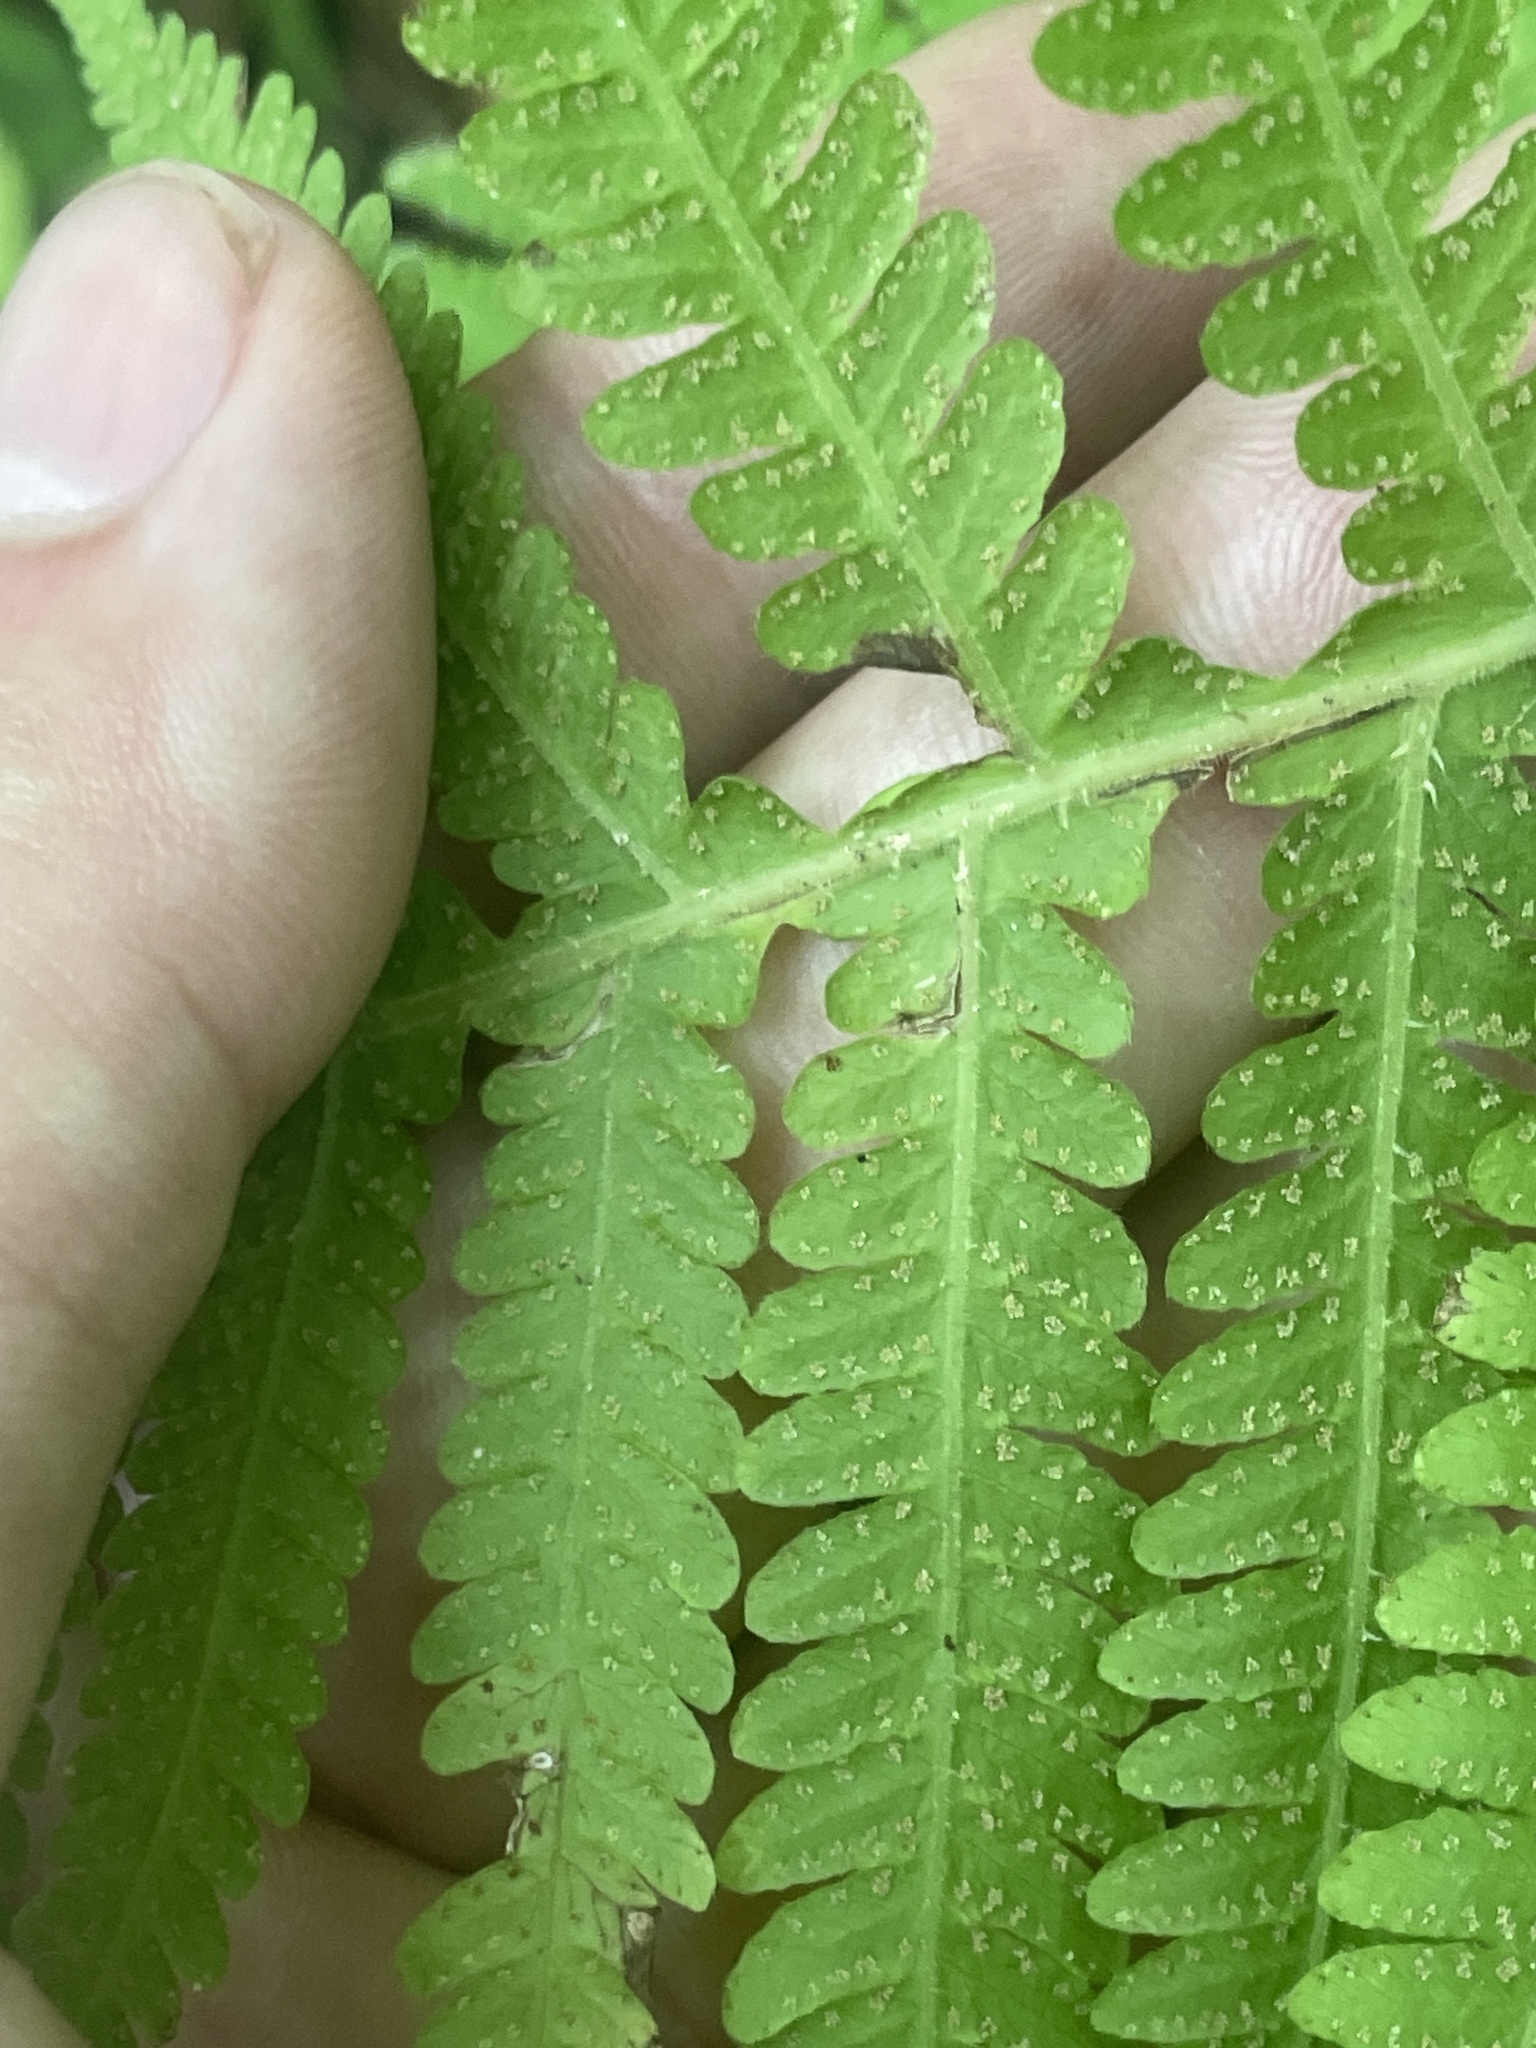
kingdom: Plantae
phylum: Tracheophyta
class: Polypodiopsida
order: Polypodiales
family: Thelypteridaceae
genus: Phegopteris
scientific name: Phegopteris hexagonoptera
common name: Broad beech fern
